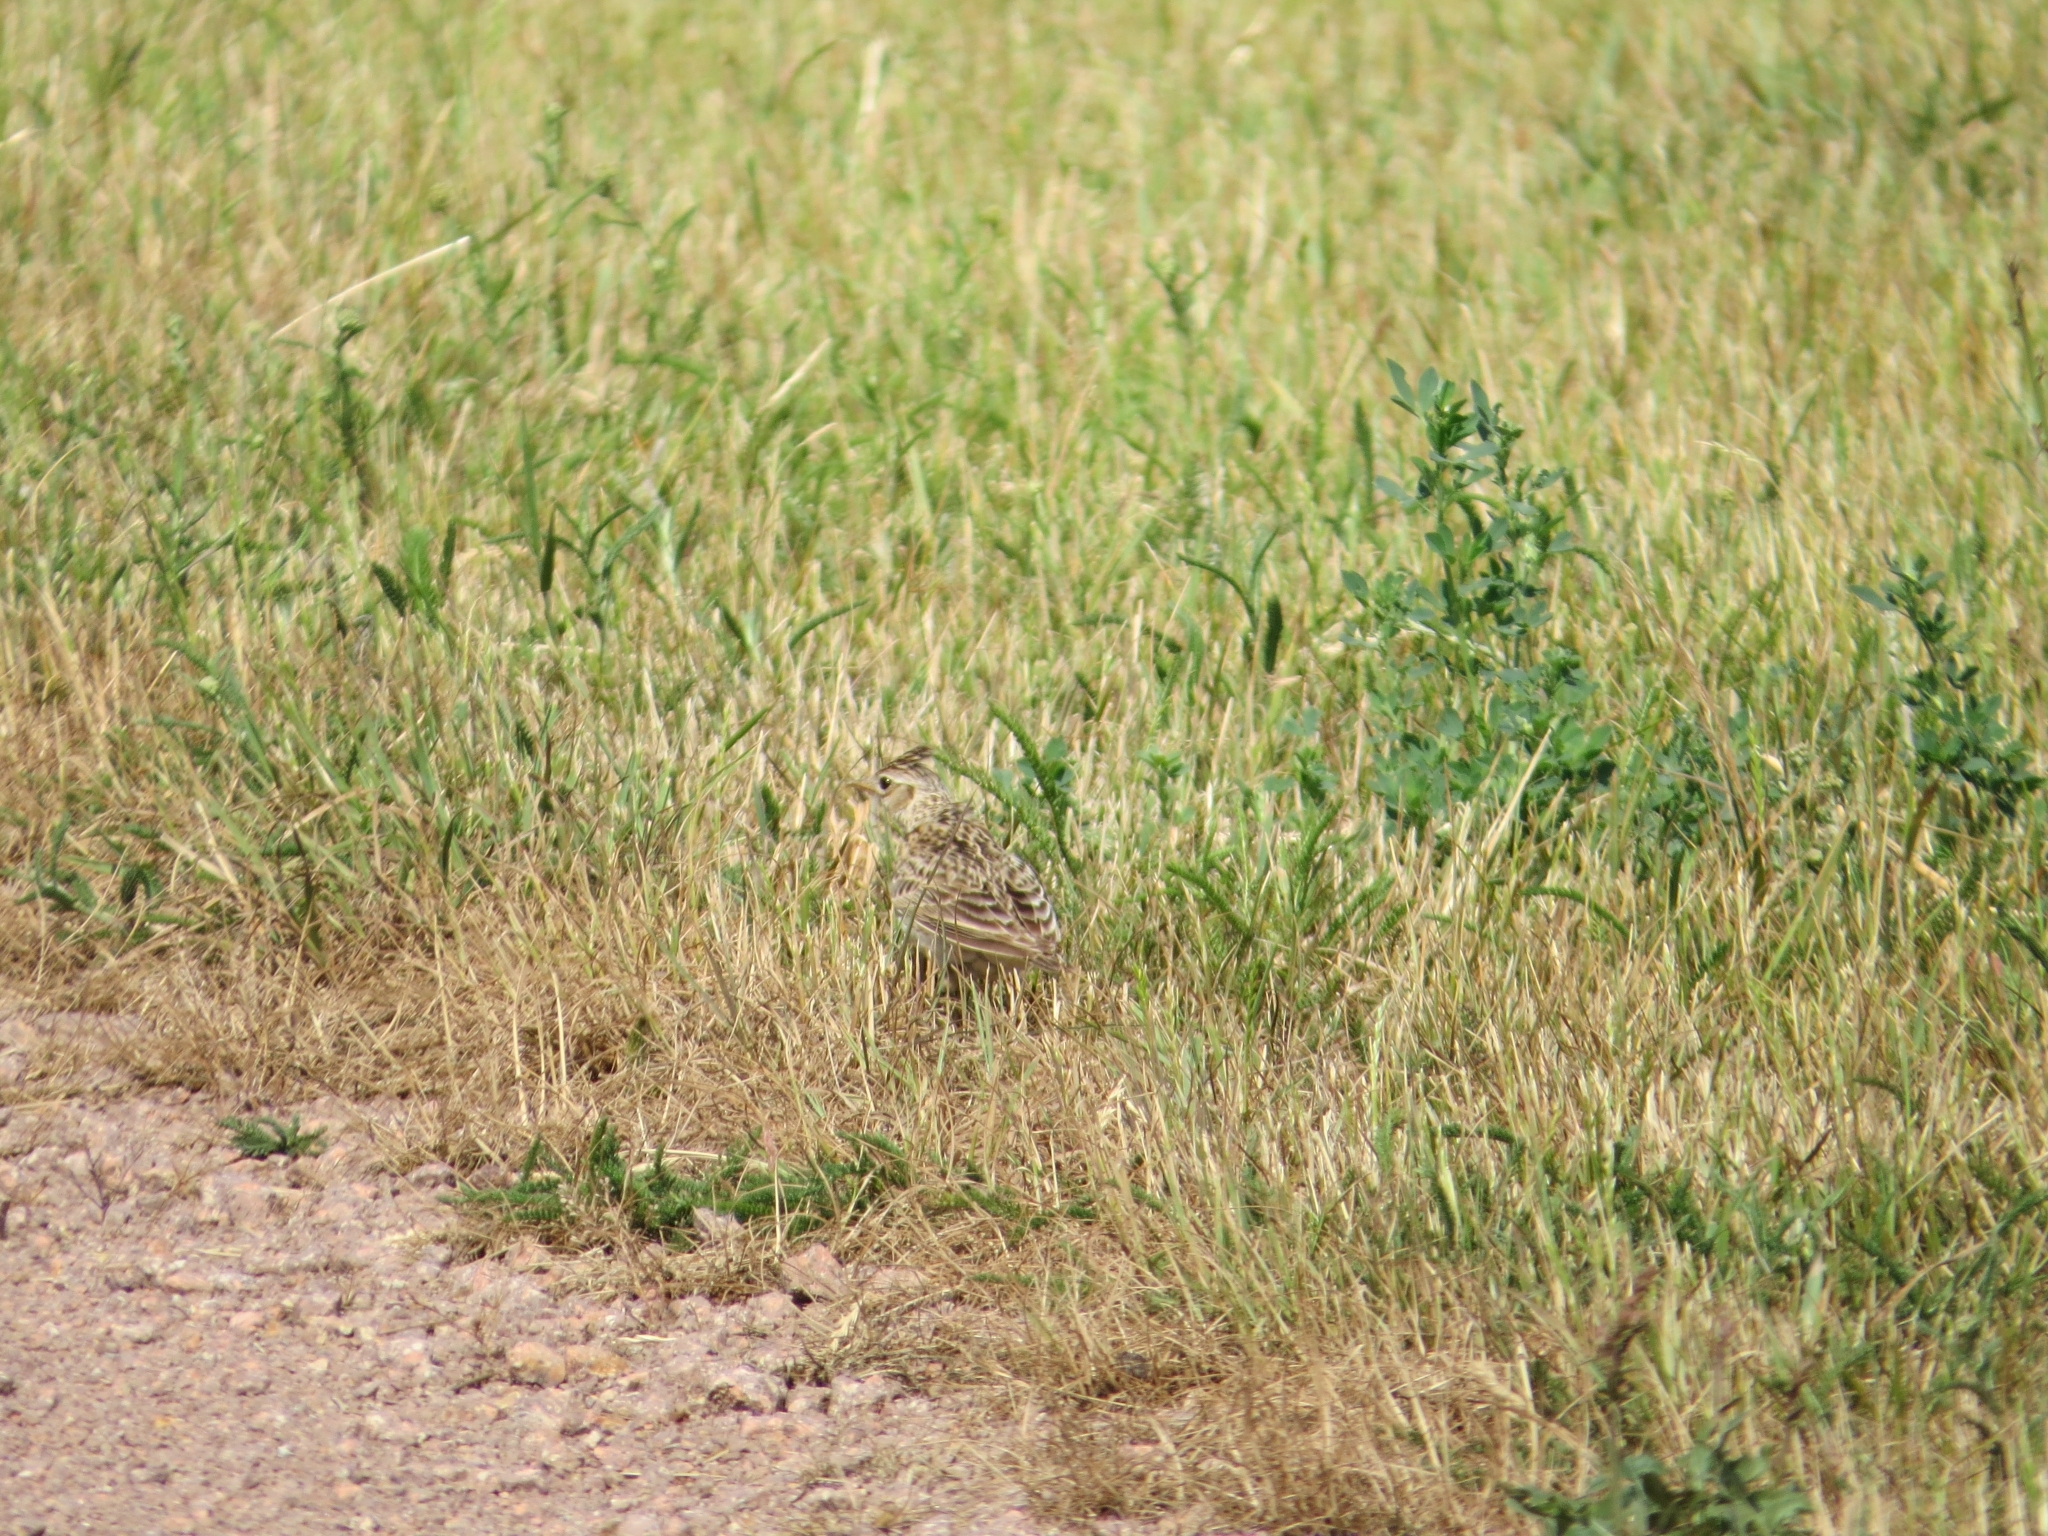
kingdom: Animalia
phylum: Chordata
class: Aves
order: Passeriformes
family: Alaudidae
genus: Alauda
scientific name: Alauda arvensis
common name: Eurasian skylark
